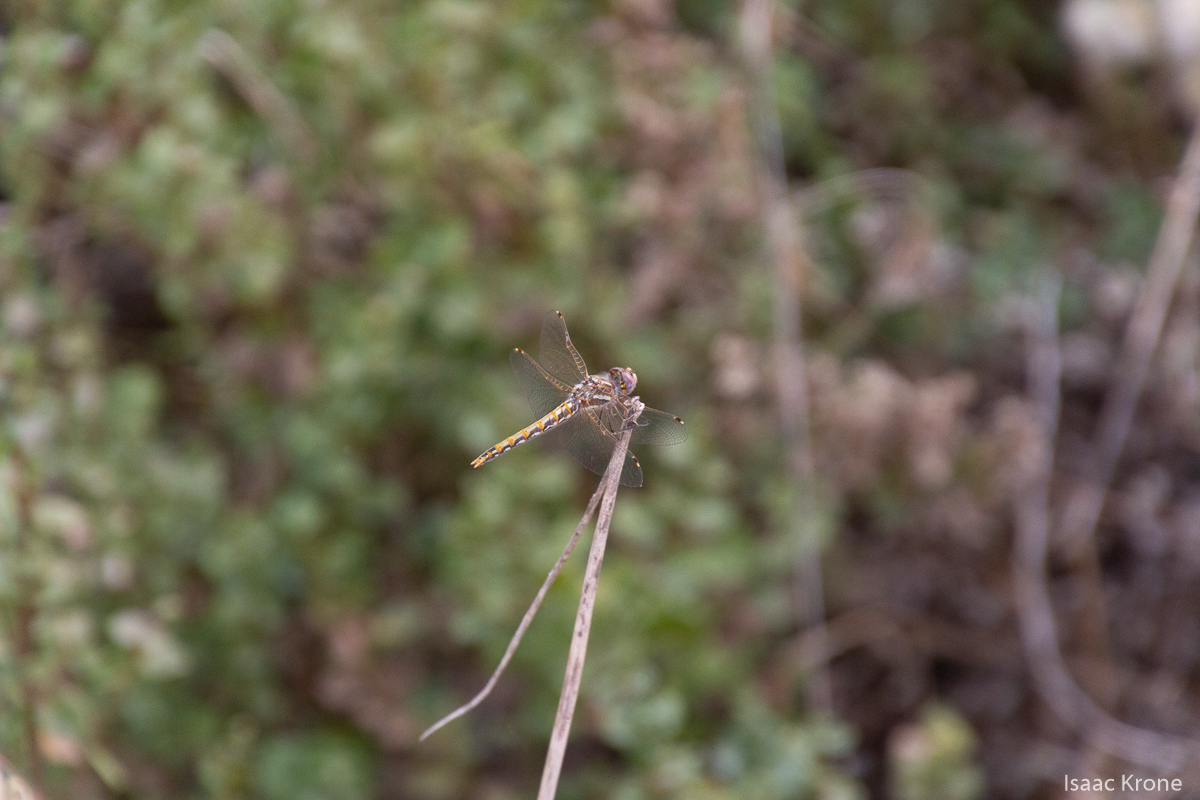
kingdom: Animalia
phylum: Arthropoda
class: Insecta
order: Odonata
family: Libellulidae
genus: Sympetrum
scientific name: Sympetrum corruptum
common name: Variegated meadowhawk
